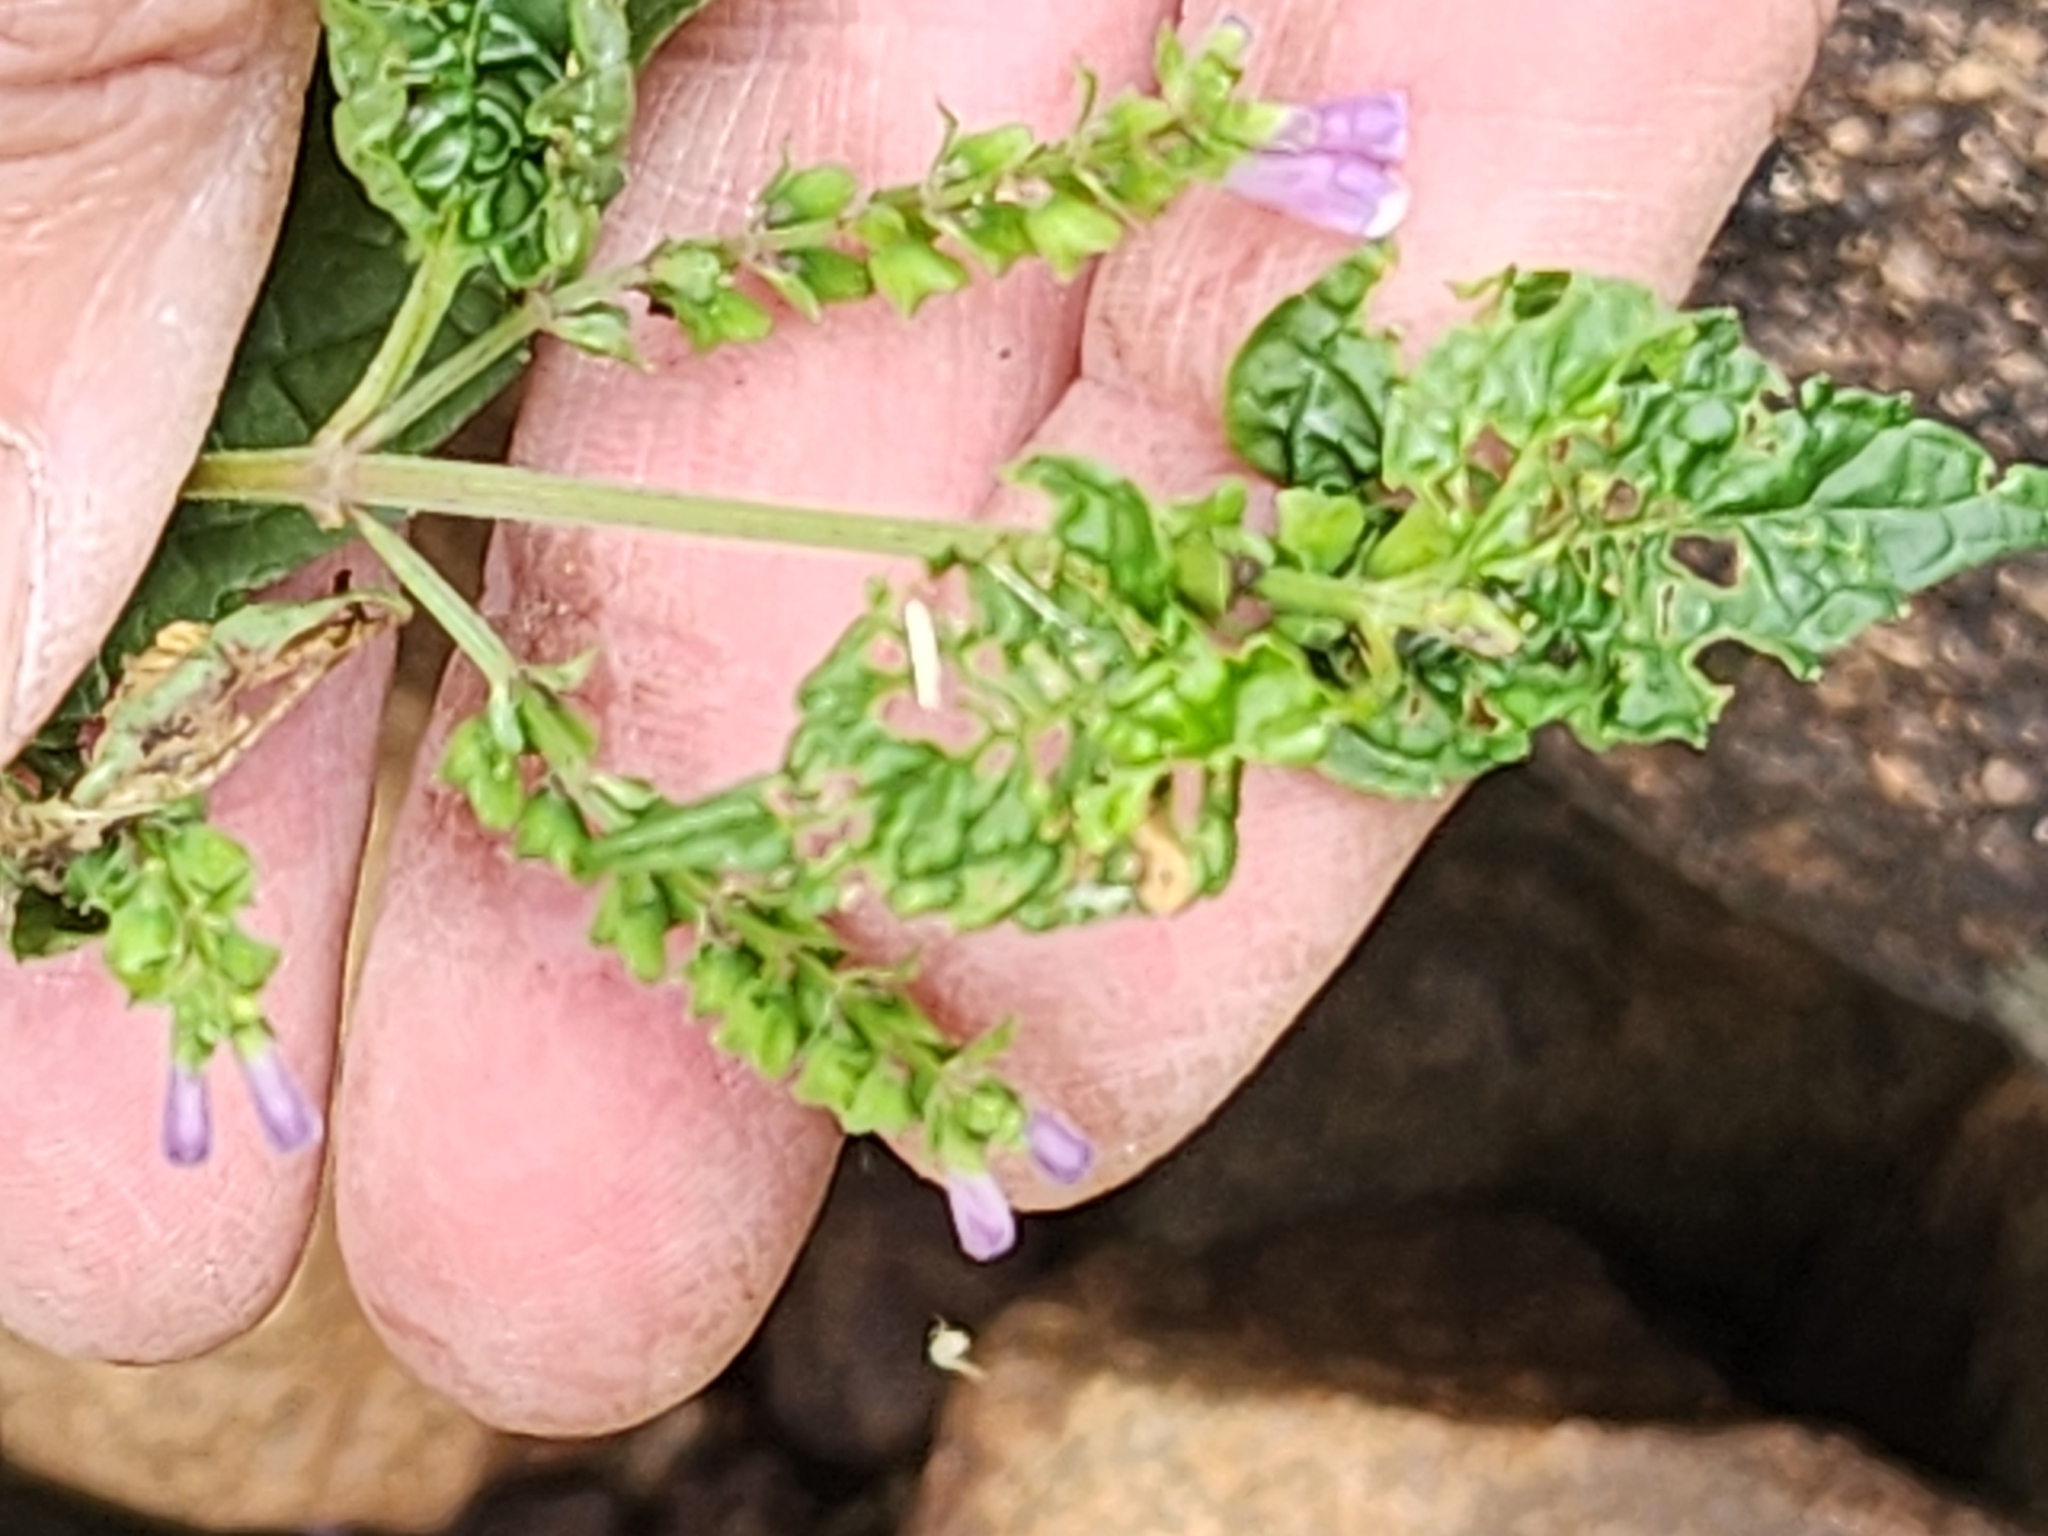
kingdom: Plantae
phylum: Tracheophyta
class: Magnoliopsida
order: Lamiales
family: Lamiaceae
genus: Scutellaria
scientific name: Scutellaria lateriflora
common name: Blue skullcap
